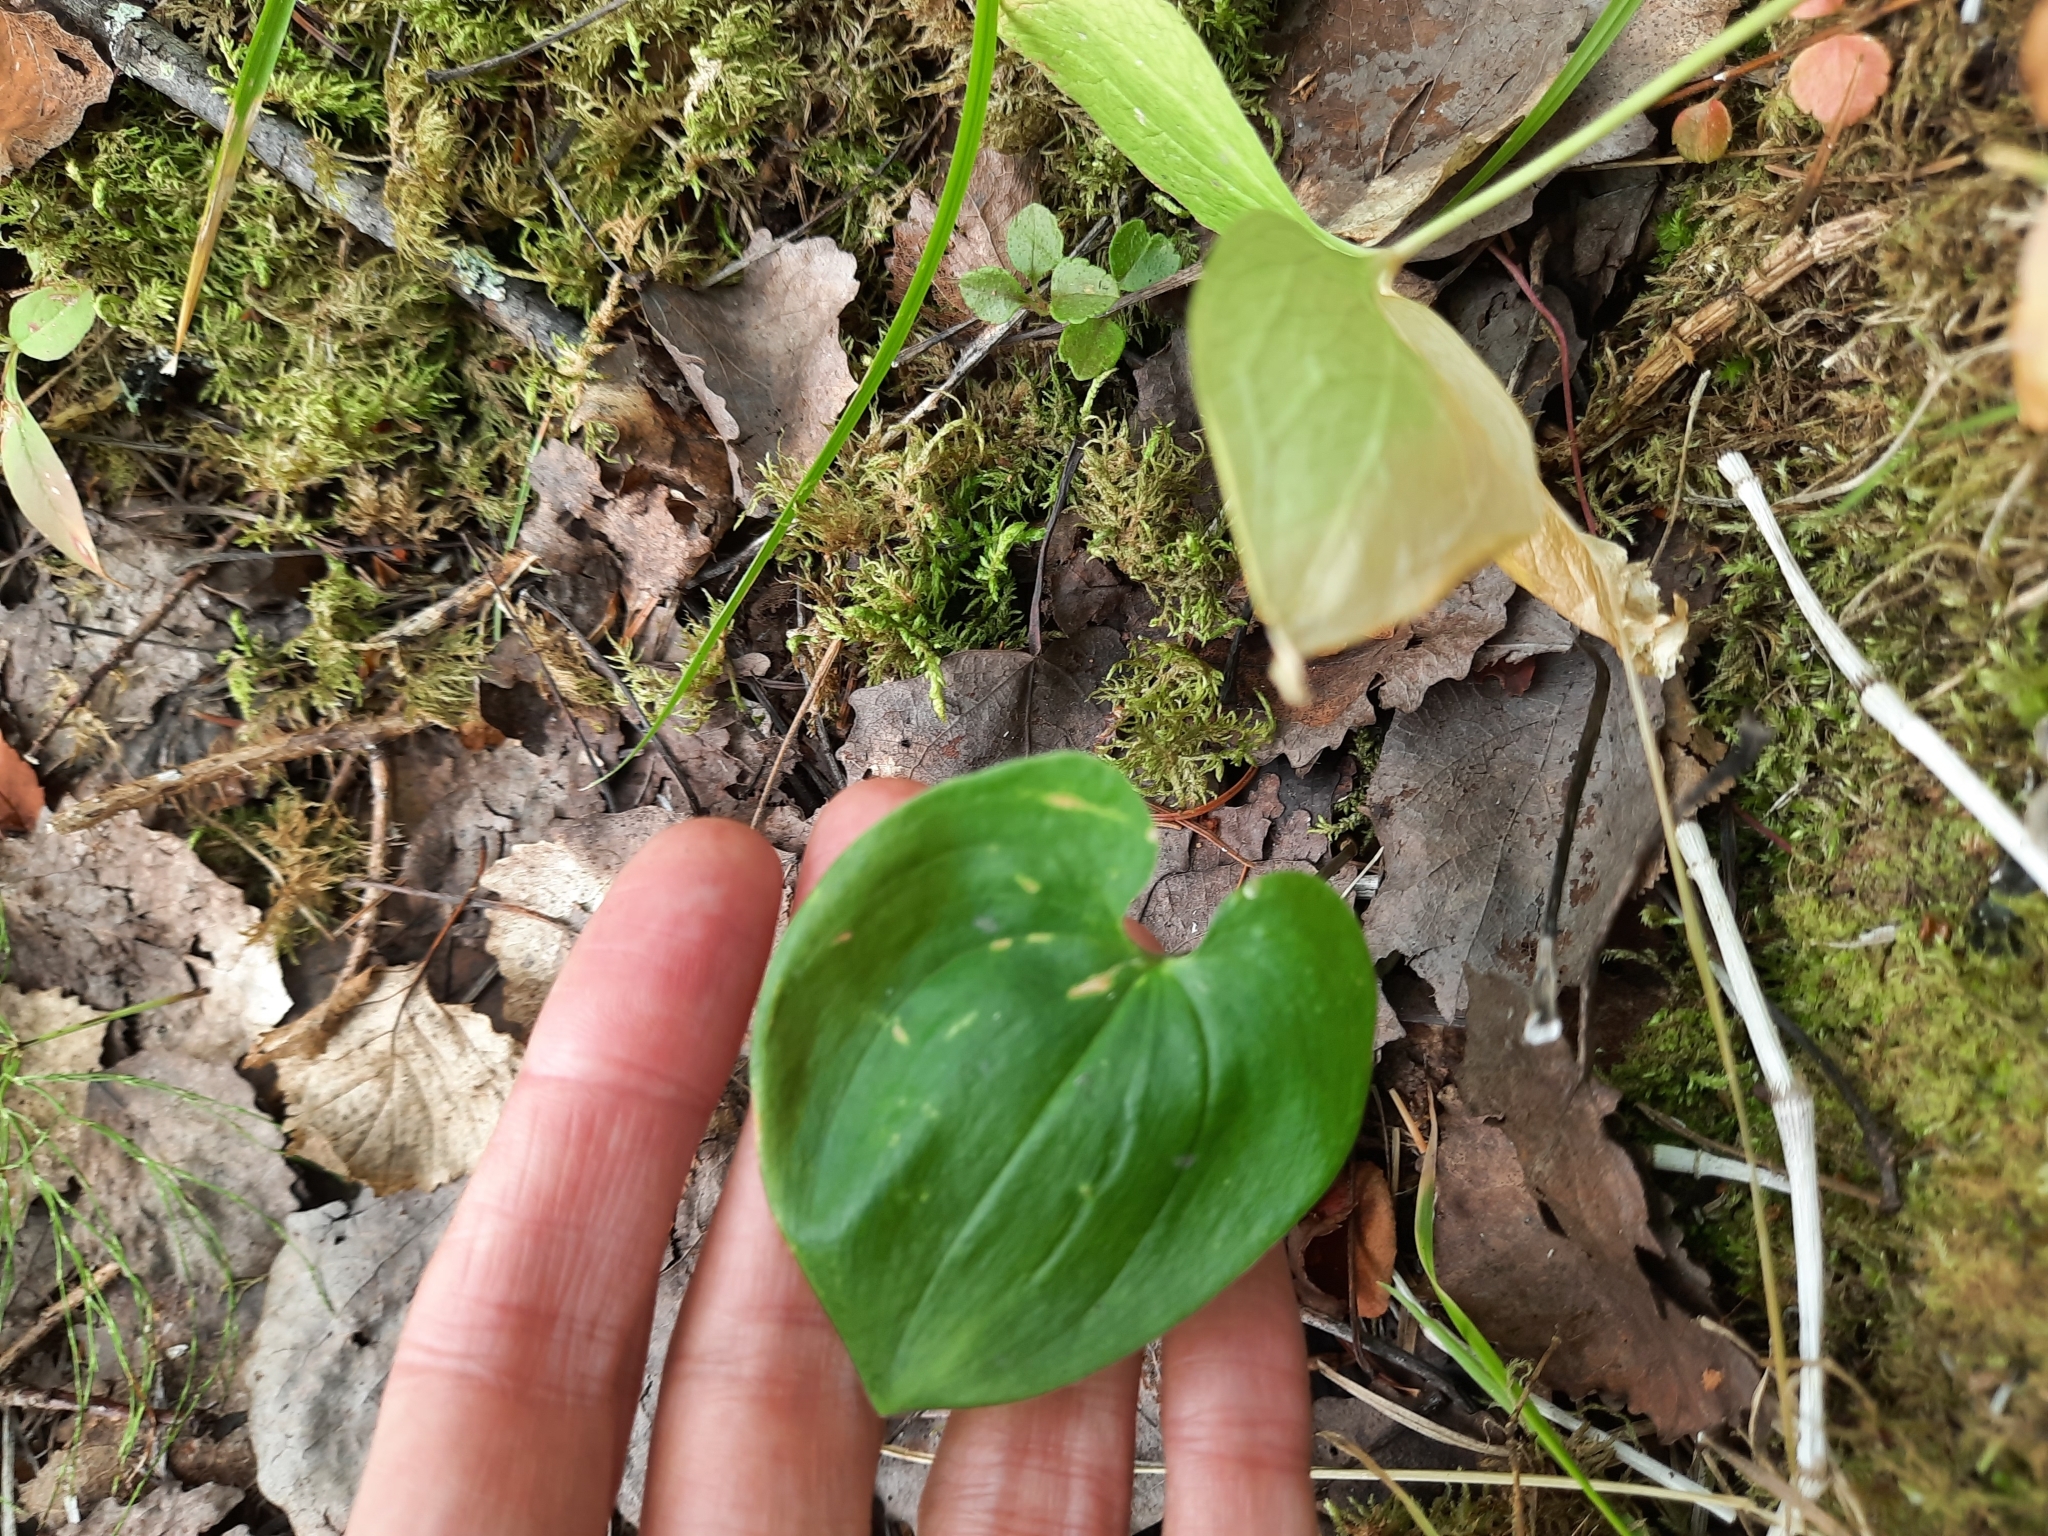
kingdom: Plantae
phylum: Tracheophyta
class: Liliopsida
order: Asparagales
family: Asparagaceae
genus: Maianthemum
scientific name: Maianthemum bifolium
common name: May lily
